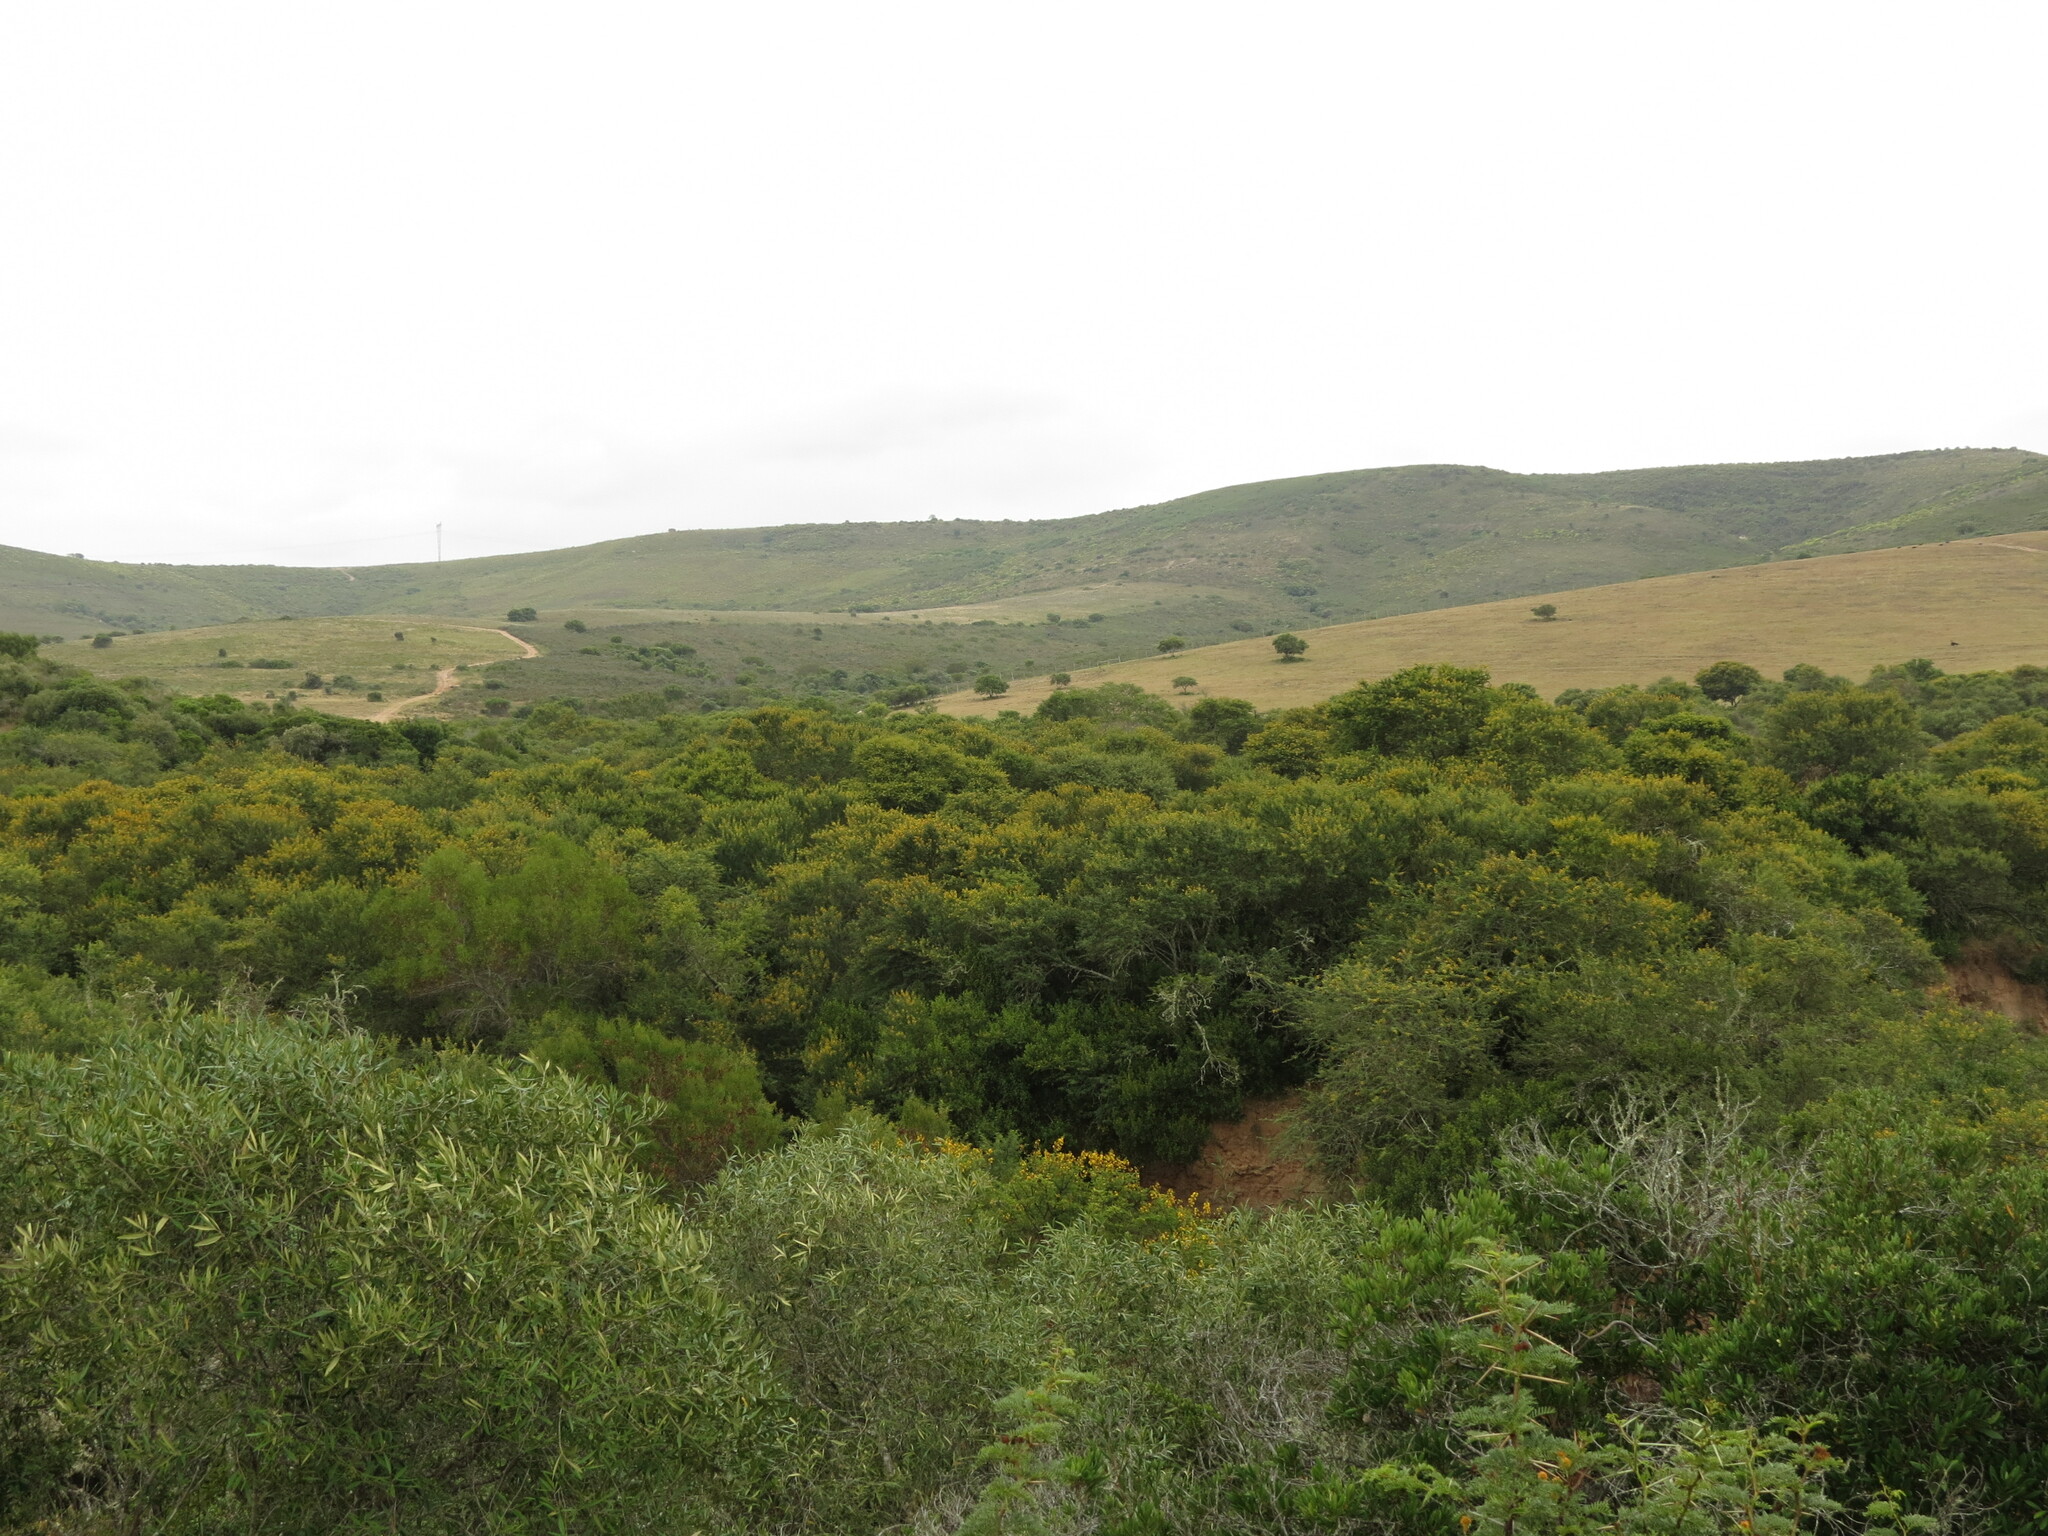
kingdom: Plantae
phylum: Tracheophyta
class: Magnoliopsida
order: Fabales
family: Fabaceae
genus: Vachellia
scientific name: Vachellia karroo
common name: Sweet thorn
